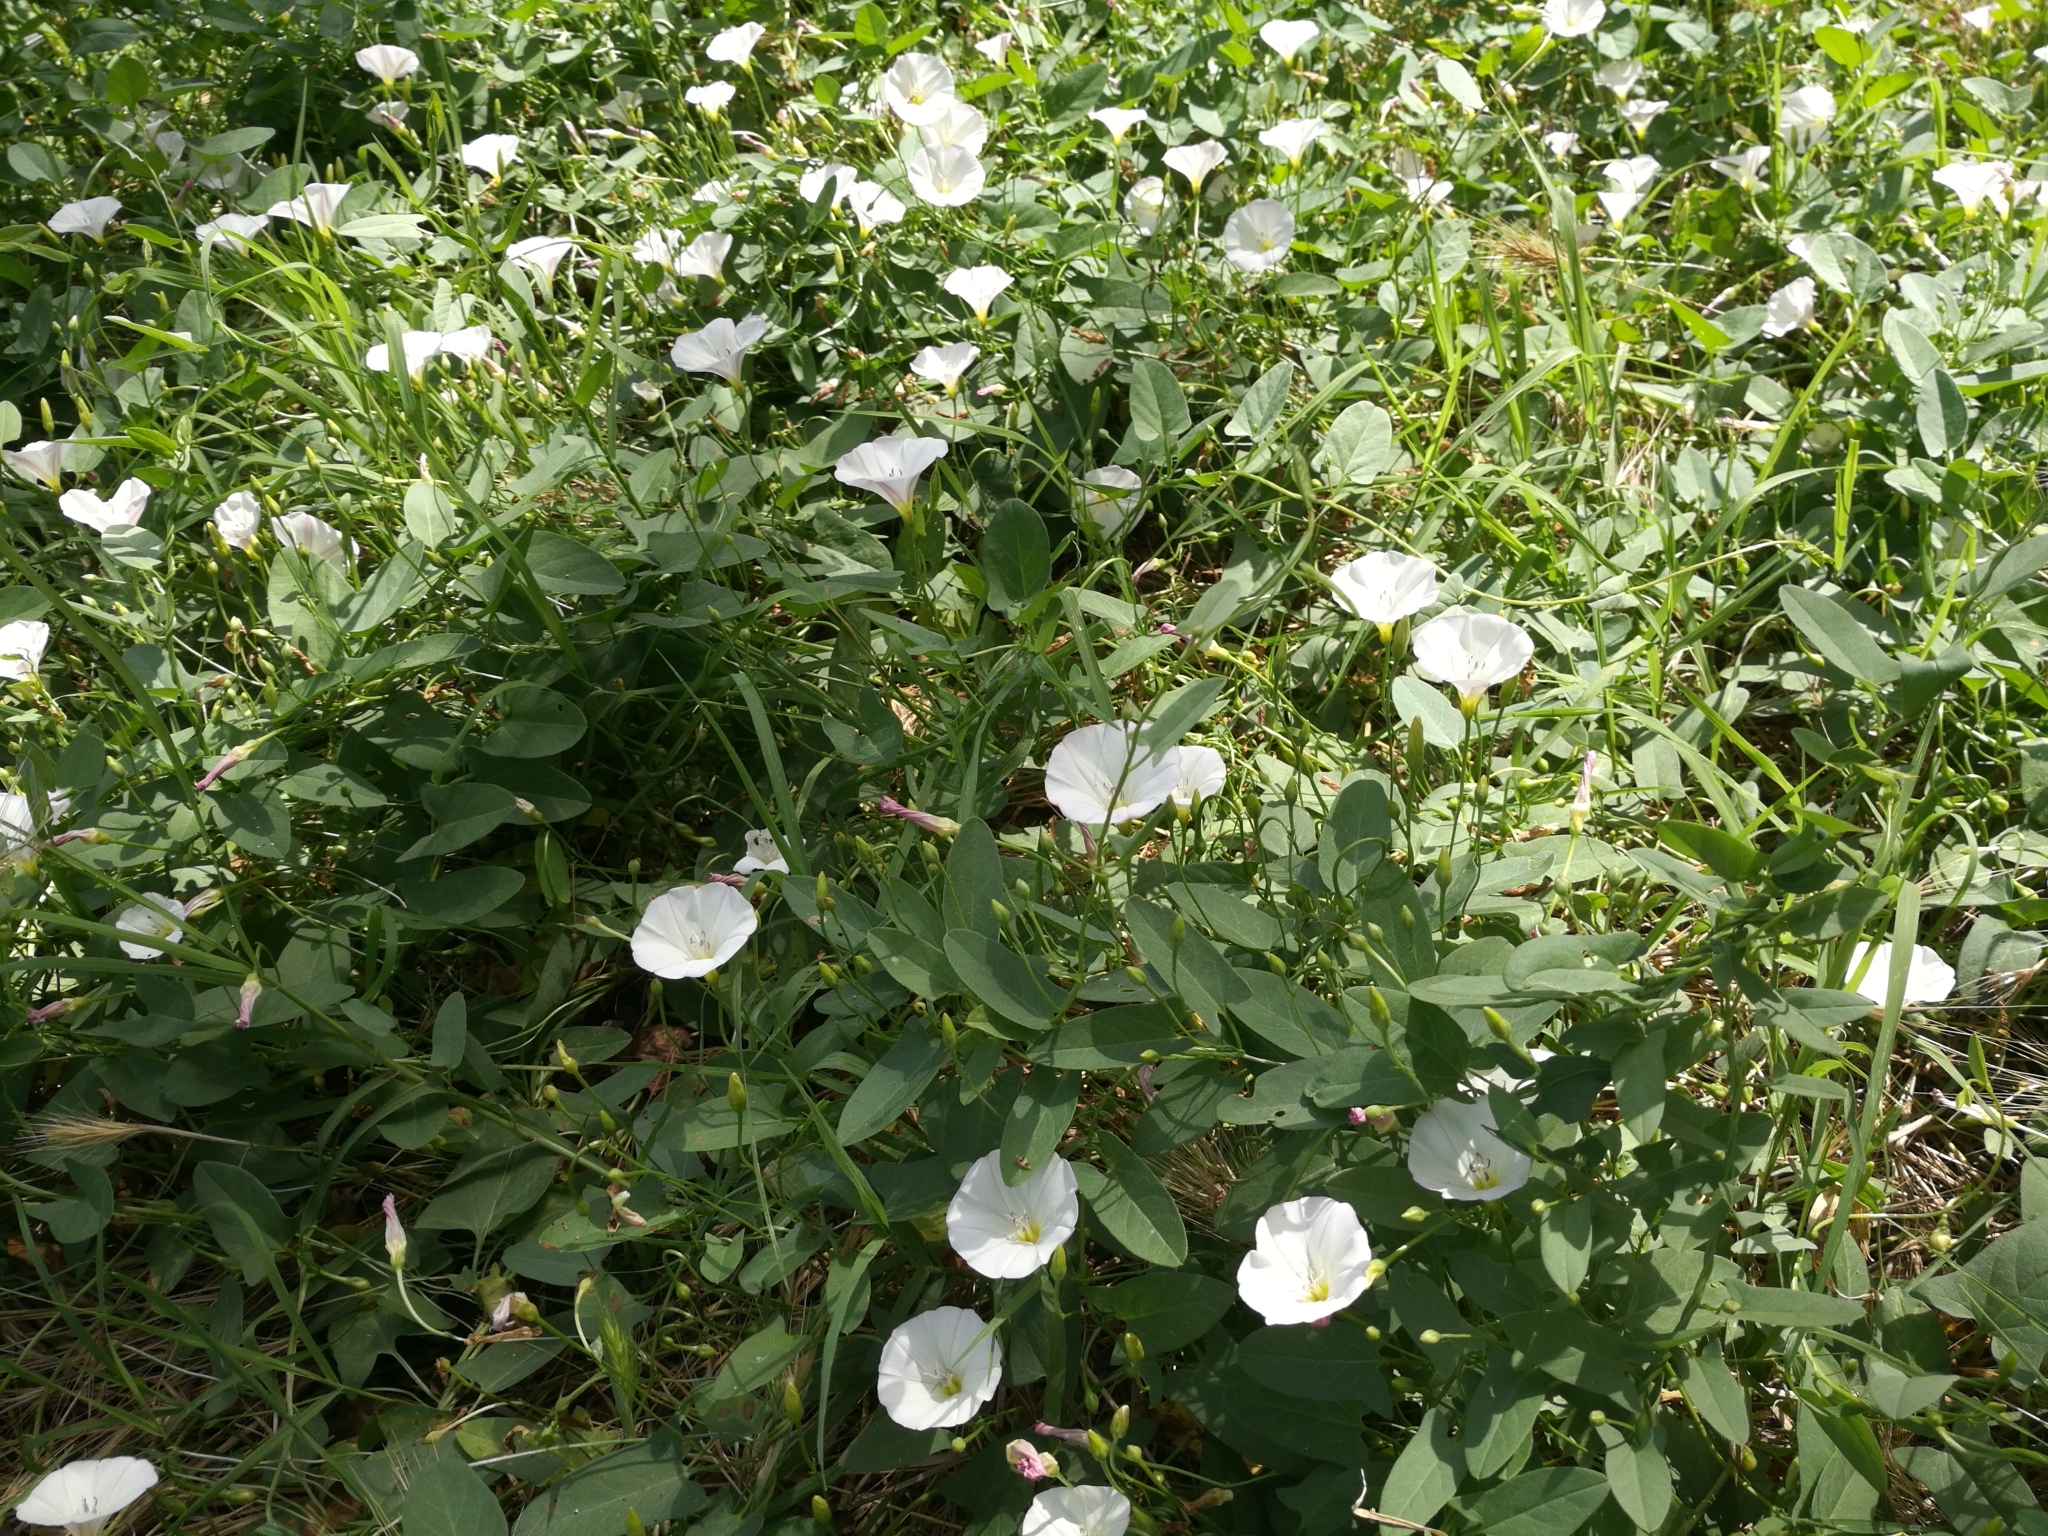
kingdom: Plantae
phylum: Tracheophyta
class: Magnoliopsida
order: Solanales
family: Convolvulaceae
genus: Convolvulus
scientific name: Convolvulus arvensis
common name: Field bindweed
